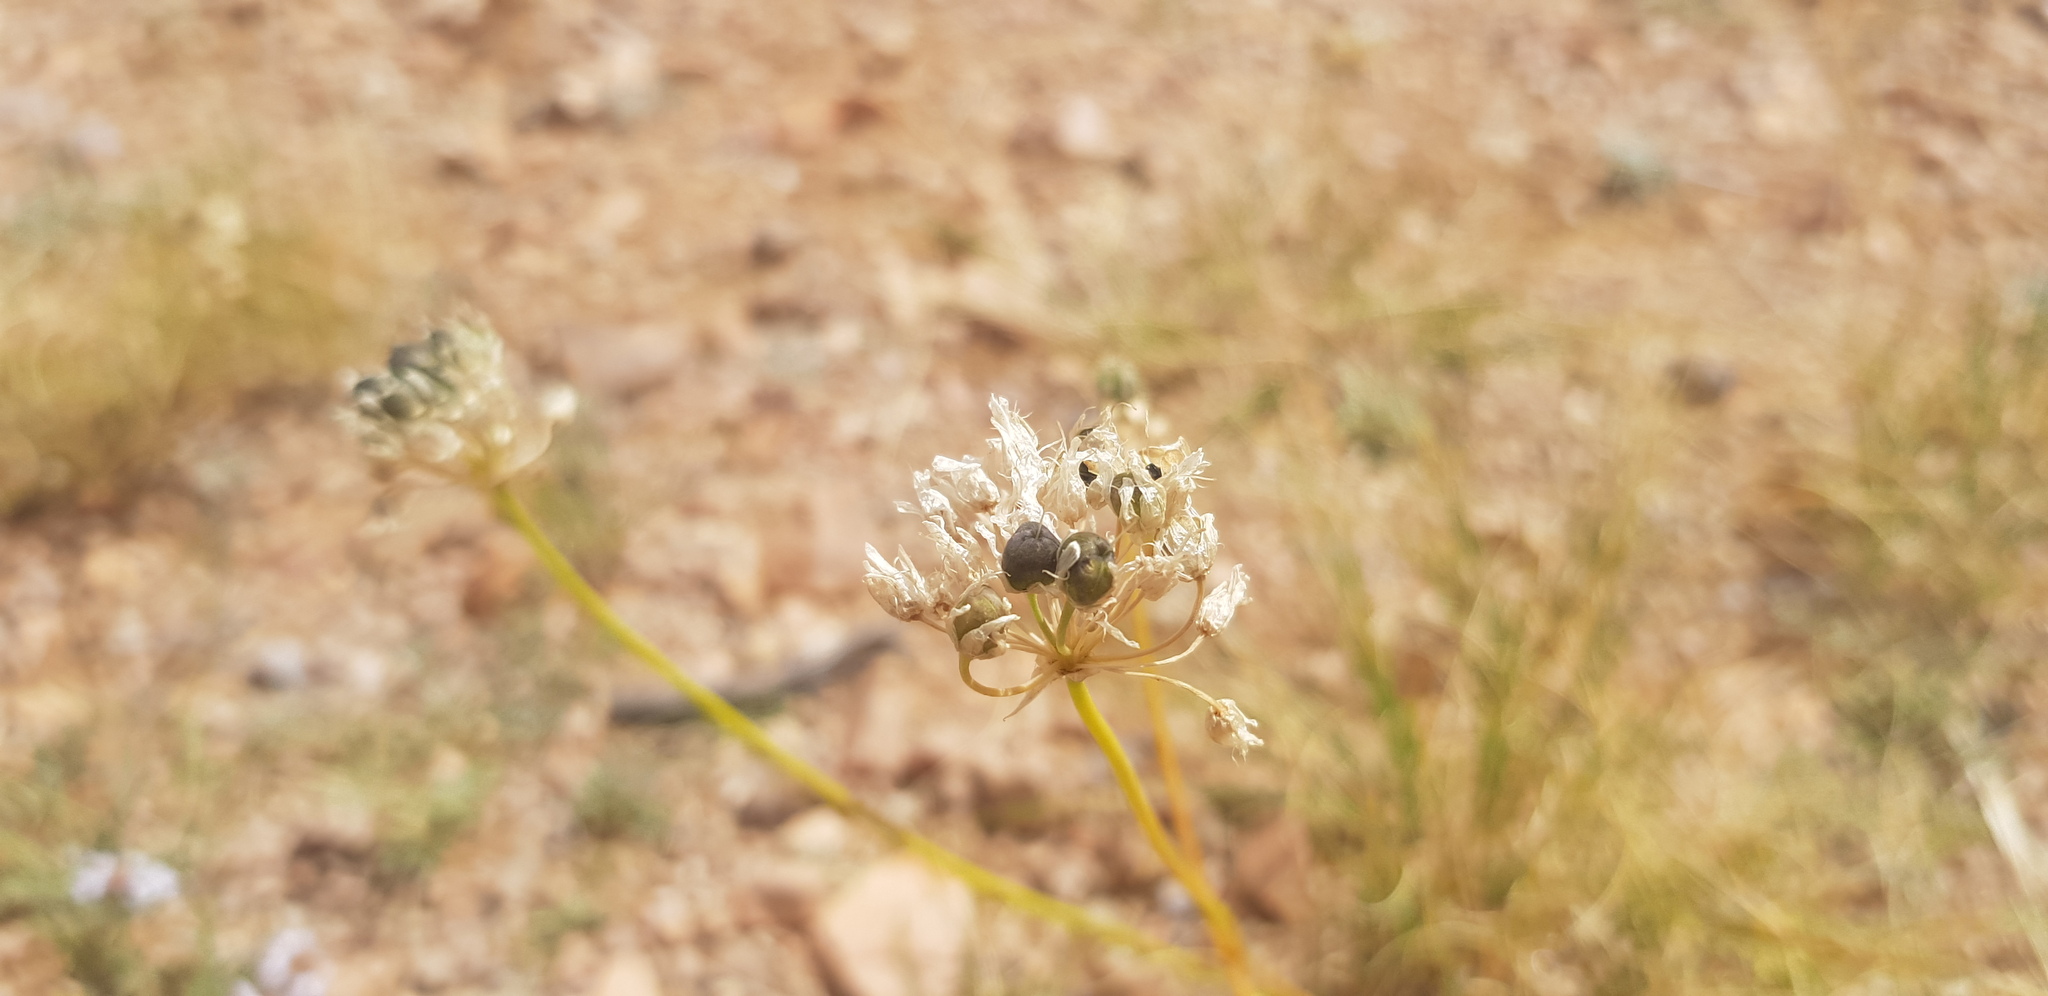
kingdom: Plantae
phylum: Tracheophyta
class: Liliopsida
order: Asparagales
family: Amaryllidaceae
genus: Allium
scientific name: Allium polyrhizum
